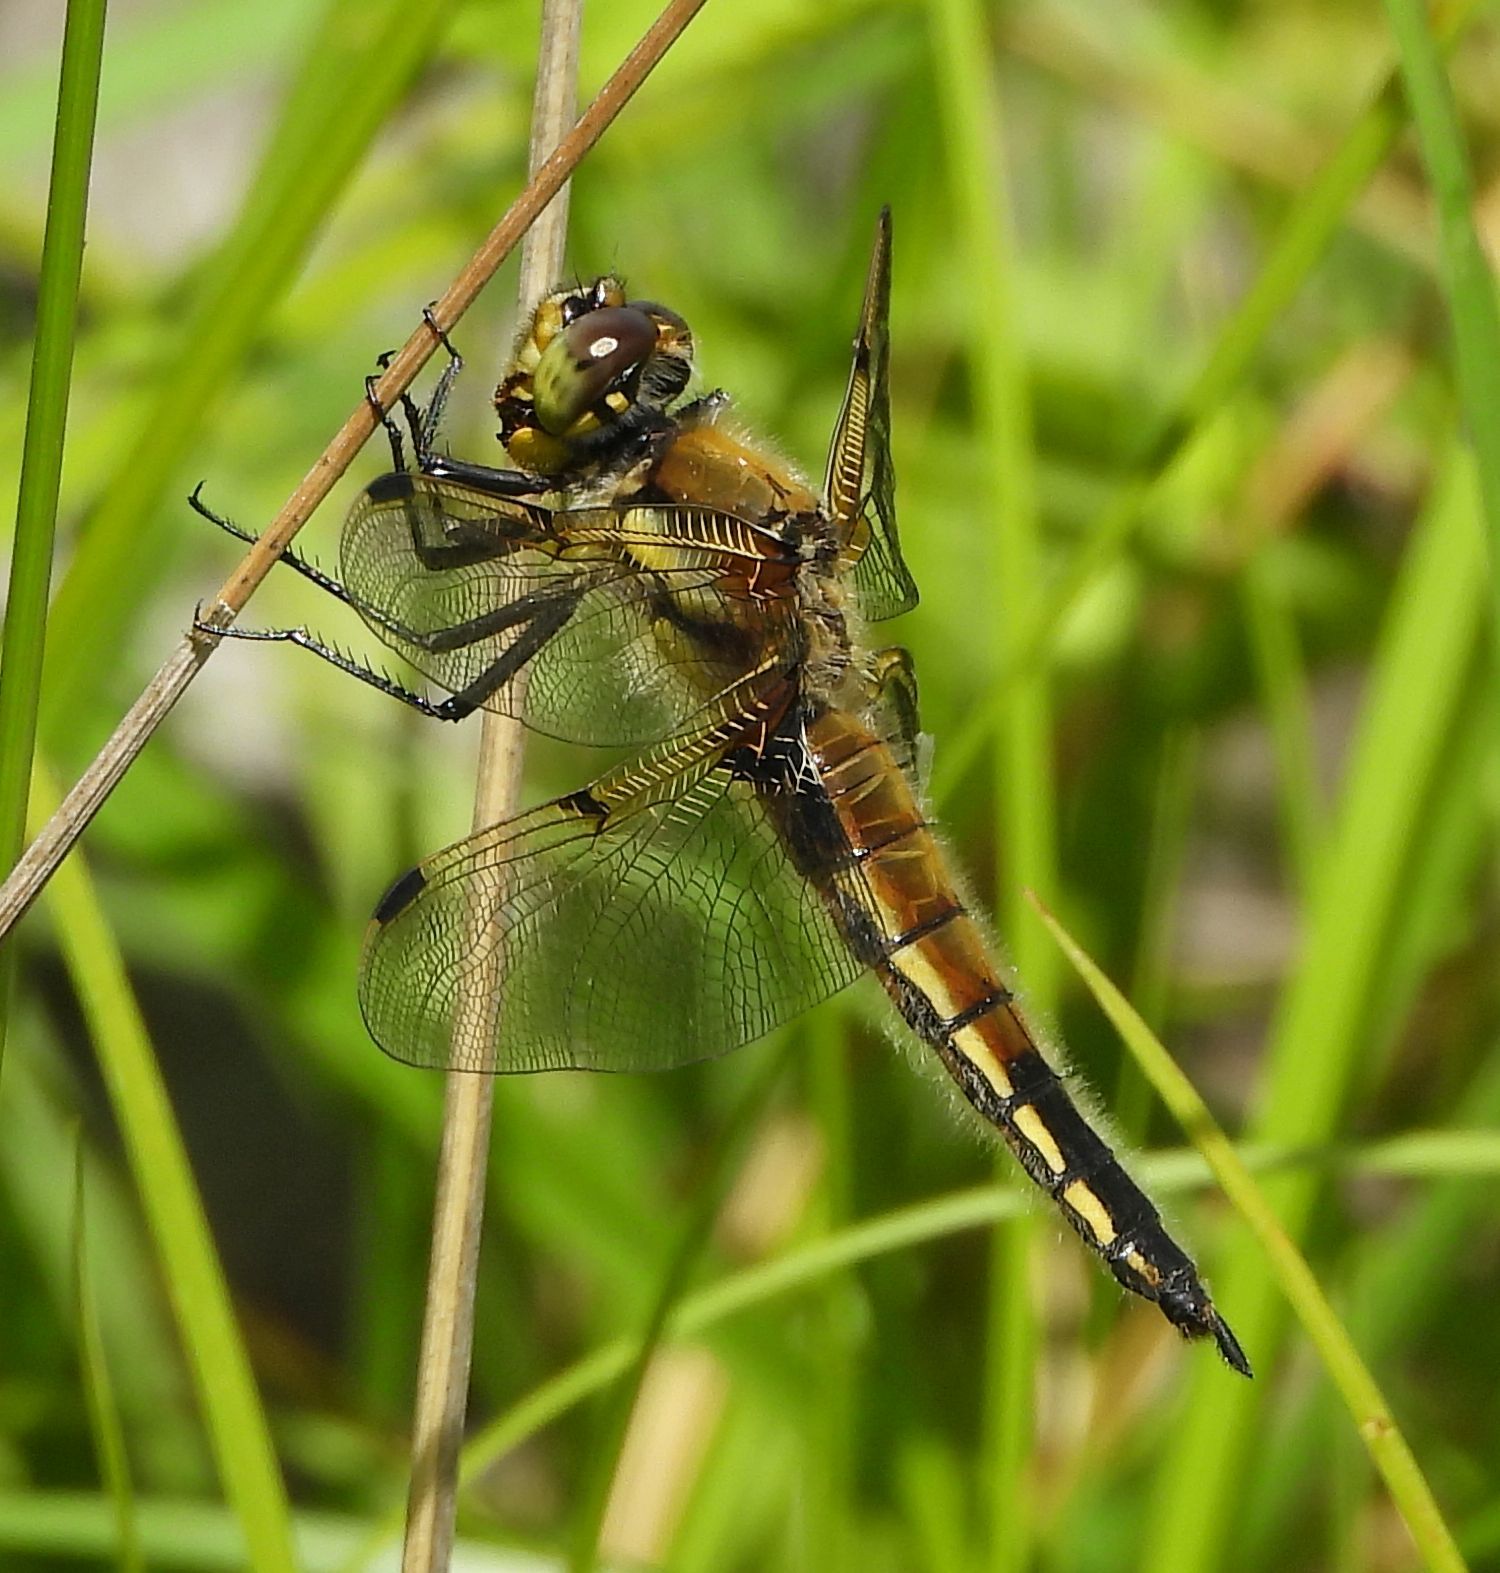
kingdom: Animalia
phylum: Arthropoda
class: Insecta
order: Odonata
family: Libellulidae
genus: Libellula
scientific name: Libellula quadrimaculata
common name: Four-spotted chaser
